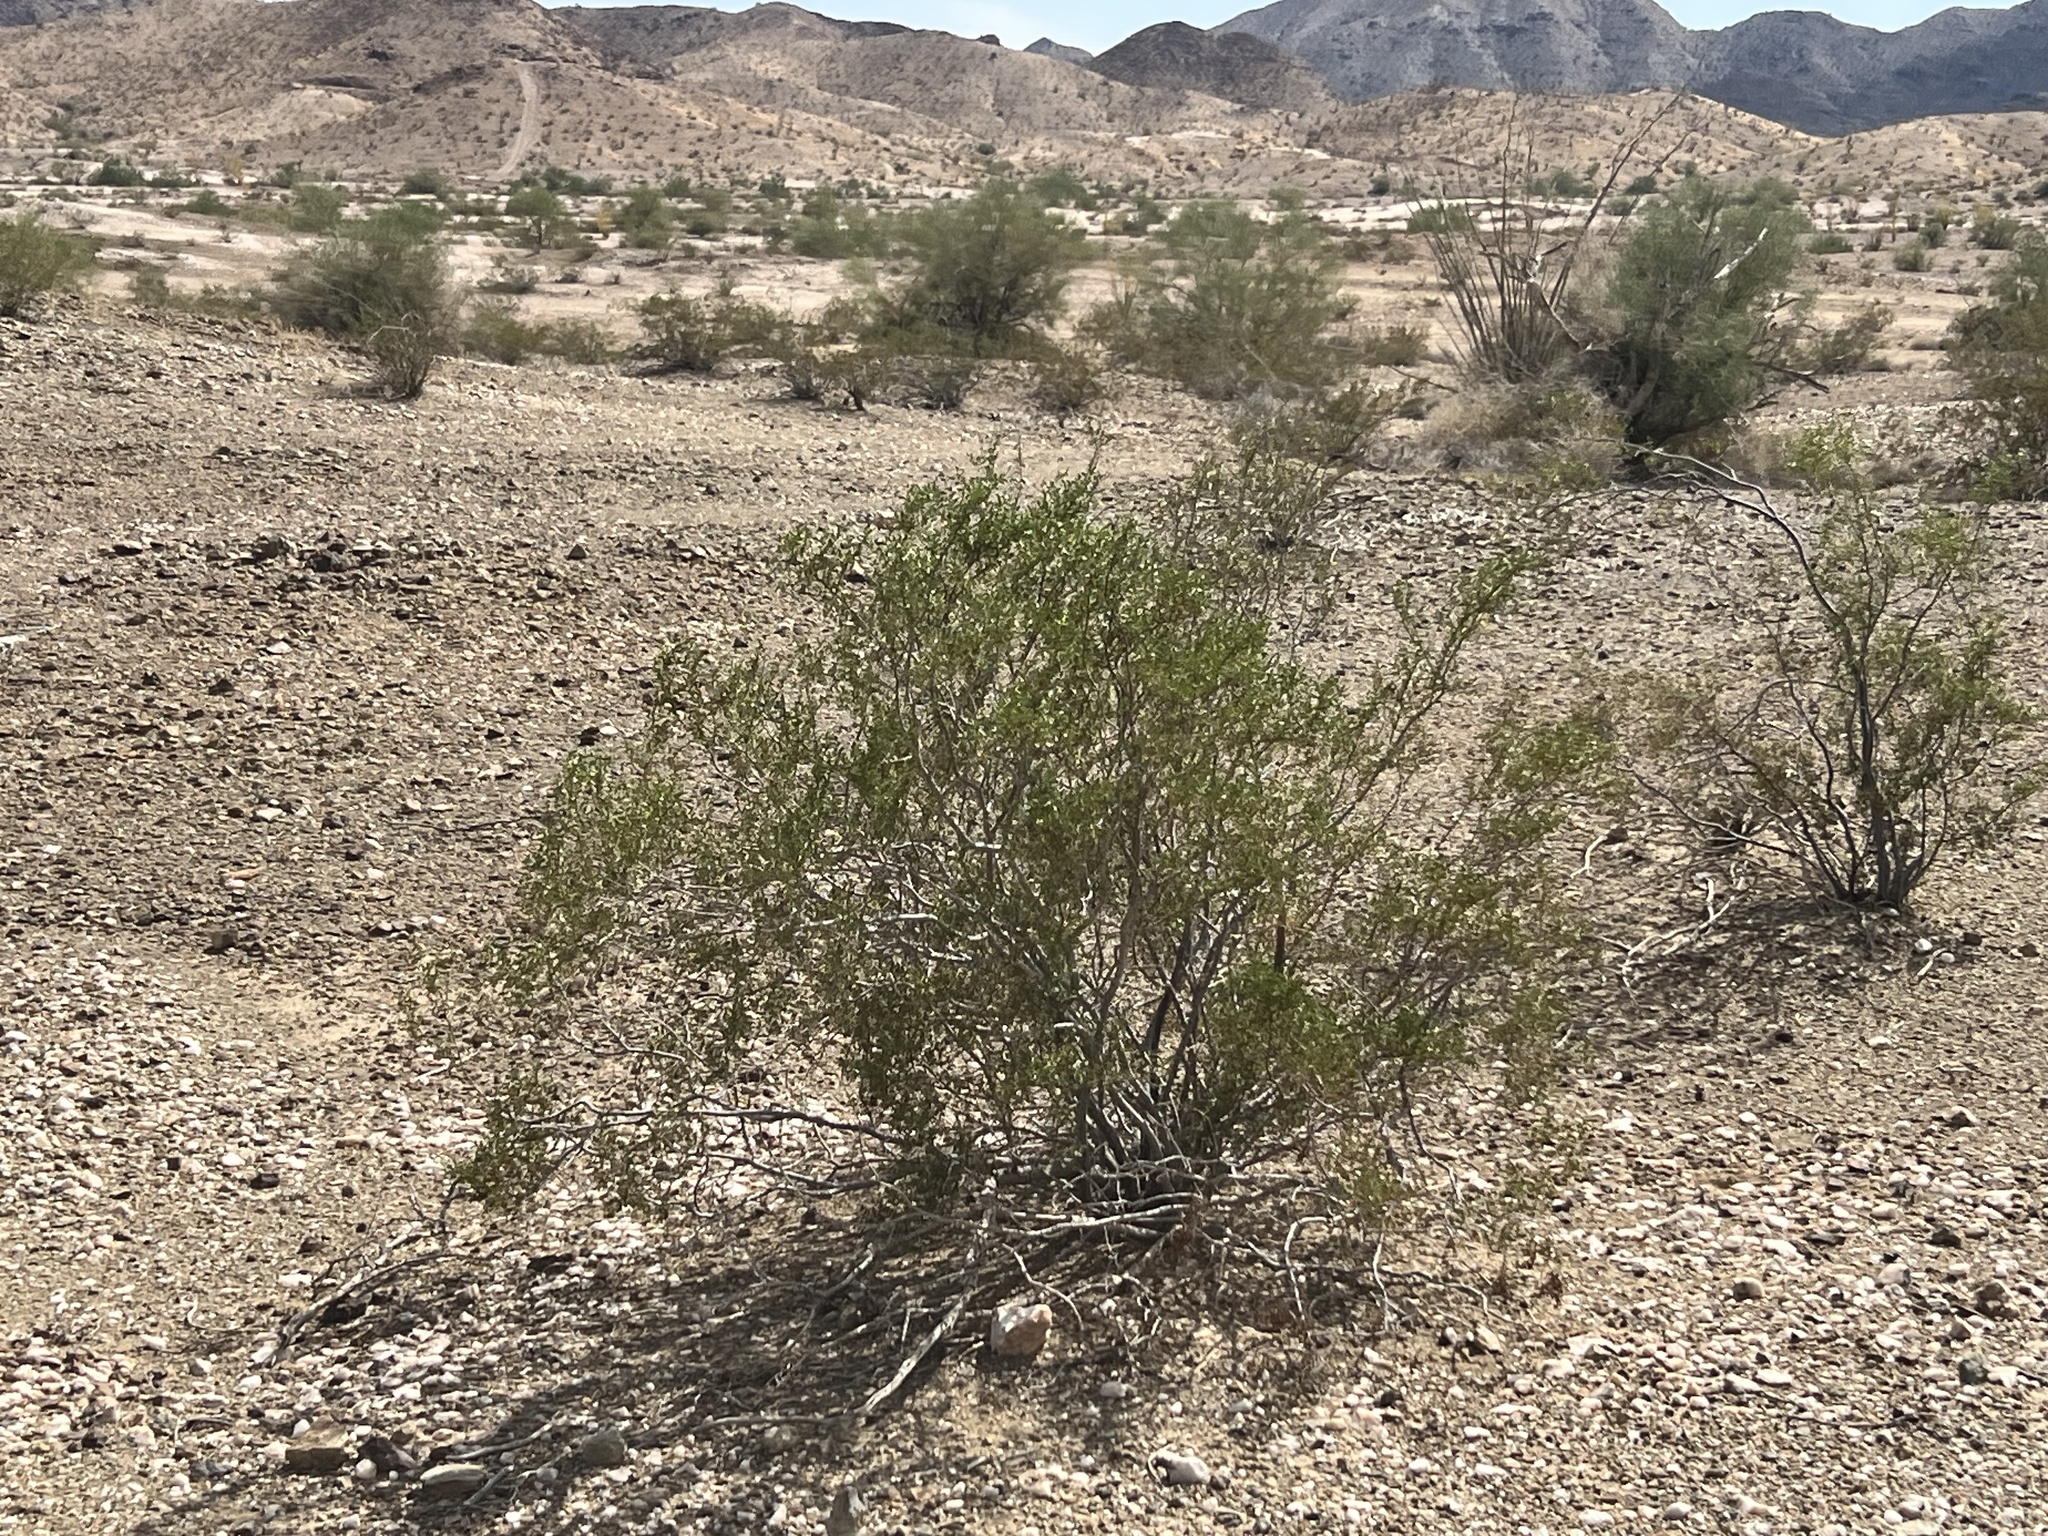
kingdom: Plantae
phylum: Tracheophyta
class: Magnoliopsida
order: Zygophyllales
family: Zygophyllaceae
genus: Larrea
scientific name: Larrea tridentata
